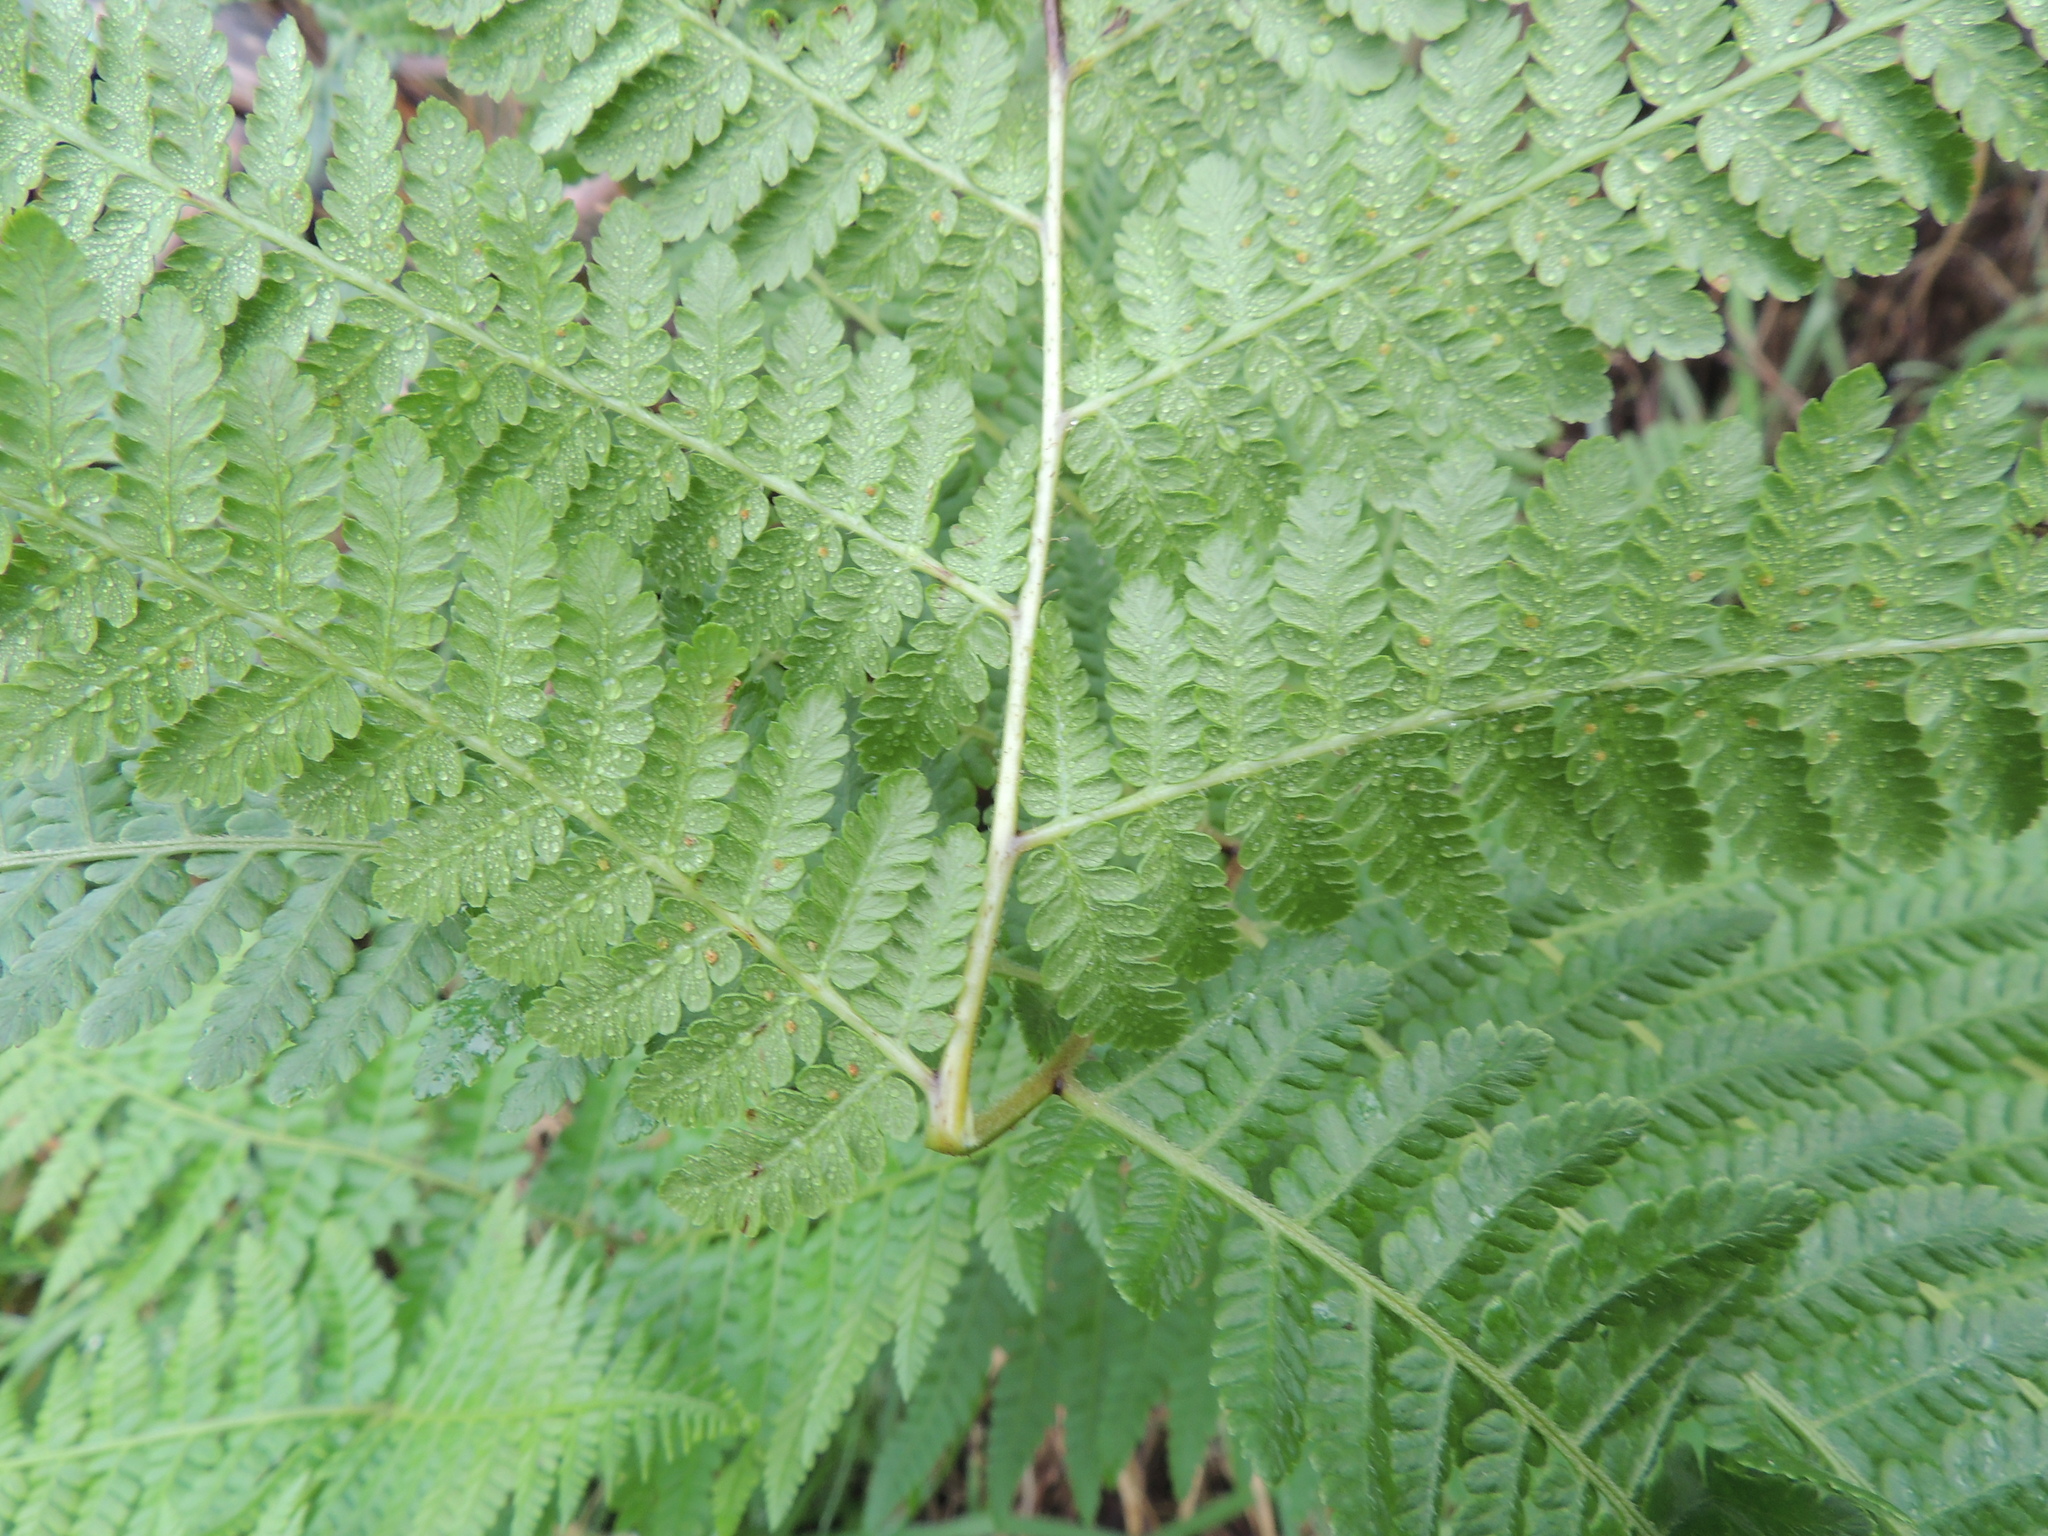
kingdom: Plantae
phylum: Tracheophyta
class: Polypodiopsida
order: Polypodiales
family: Dennstaedtiaceae
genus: Hypolepis
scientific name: Hypolepis ambigua
